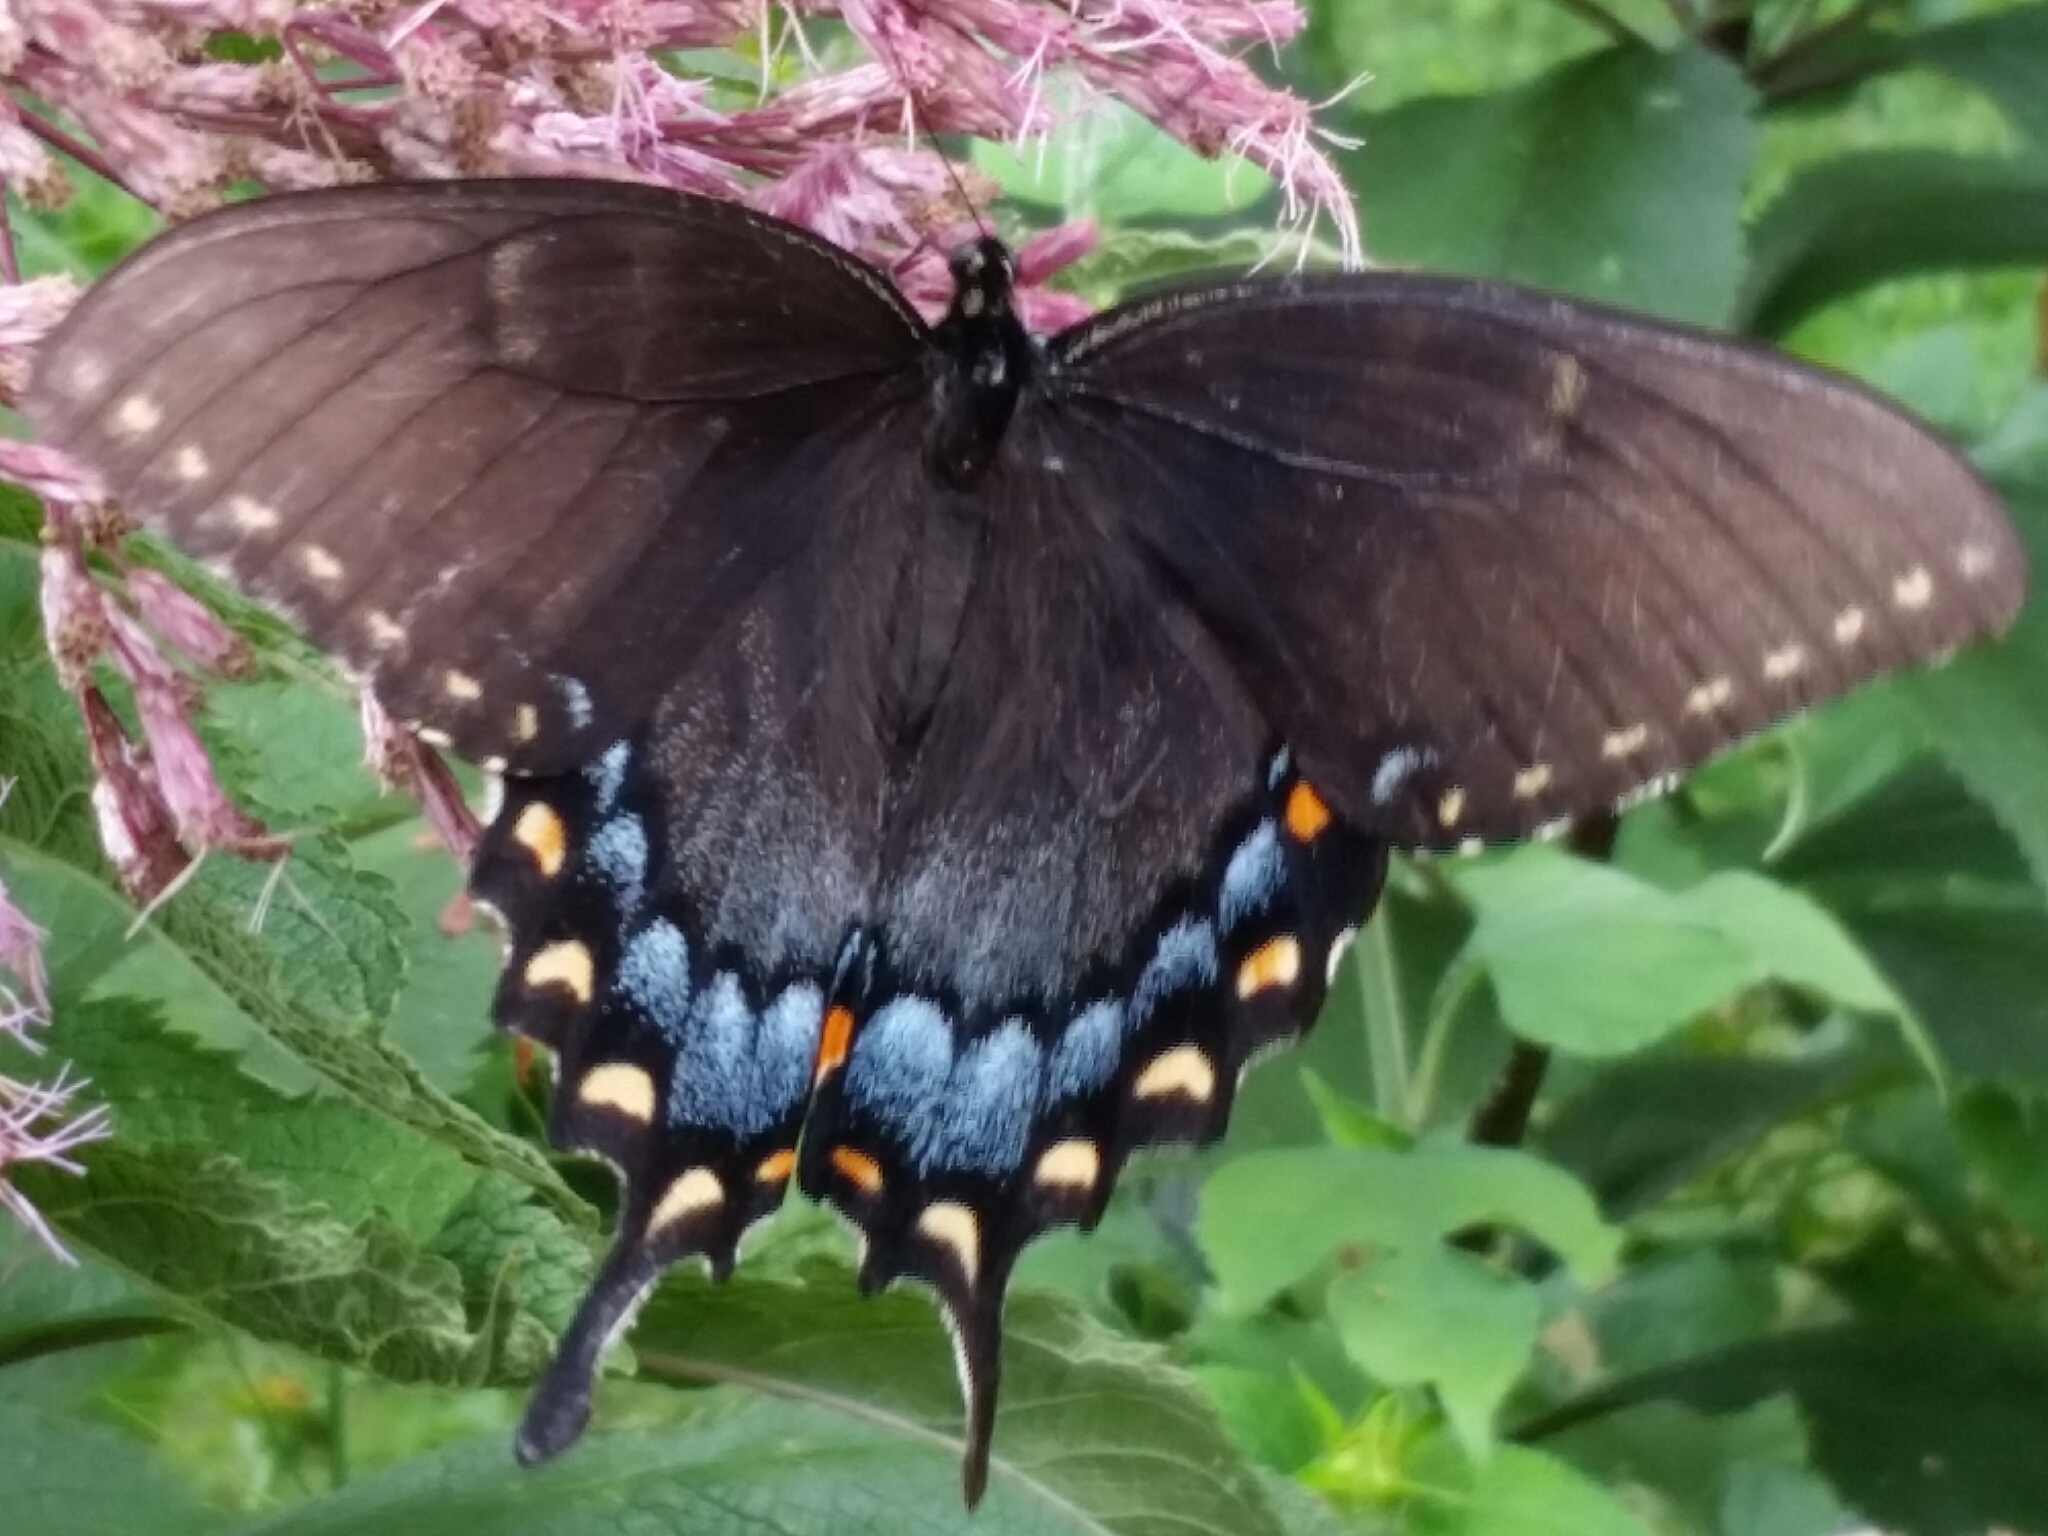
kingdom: Animalia
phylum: Arthropoda
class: Insecta
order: Lepidoptera
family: Papilionidae
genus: Papilio
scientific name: Papilio glaucus
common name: Tiger swallowtail
